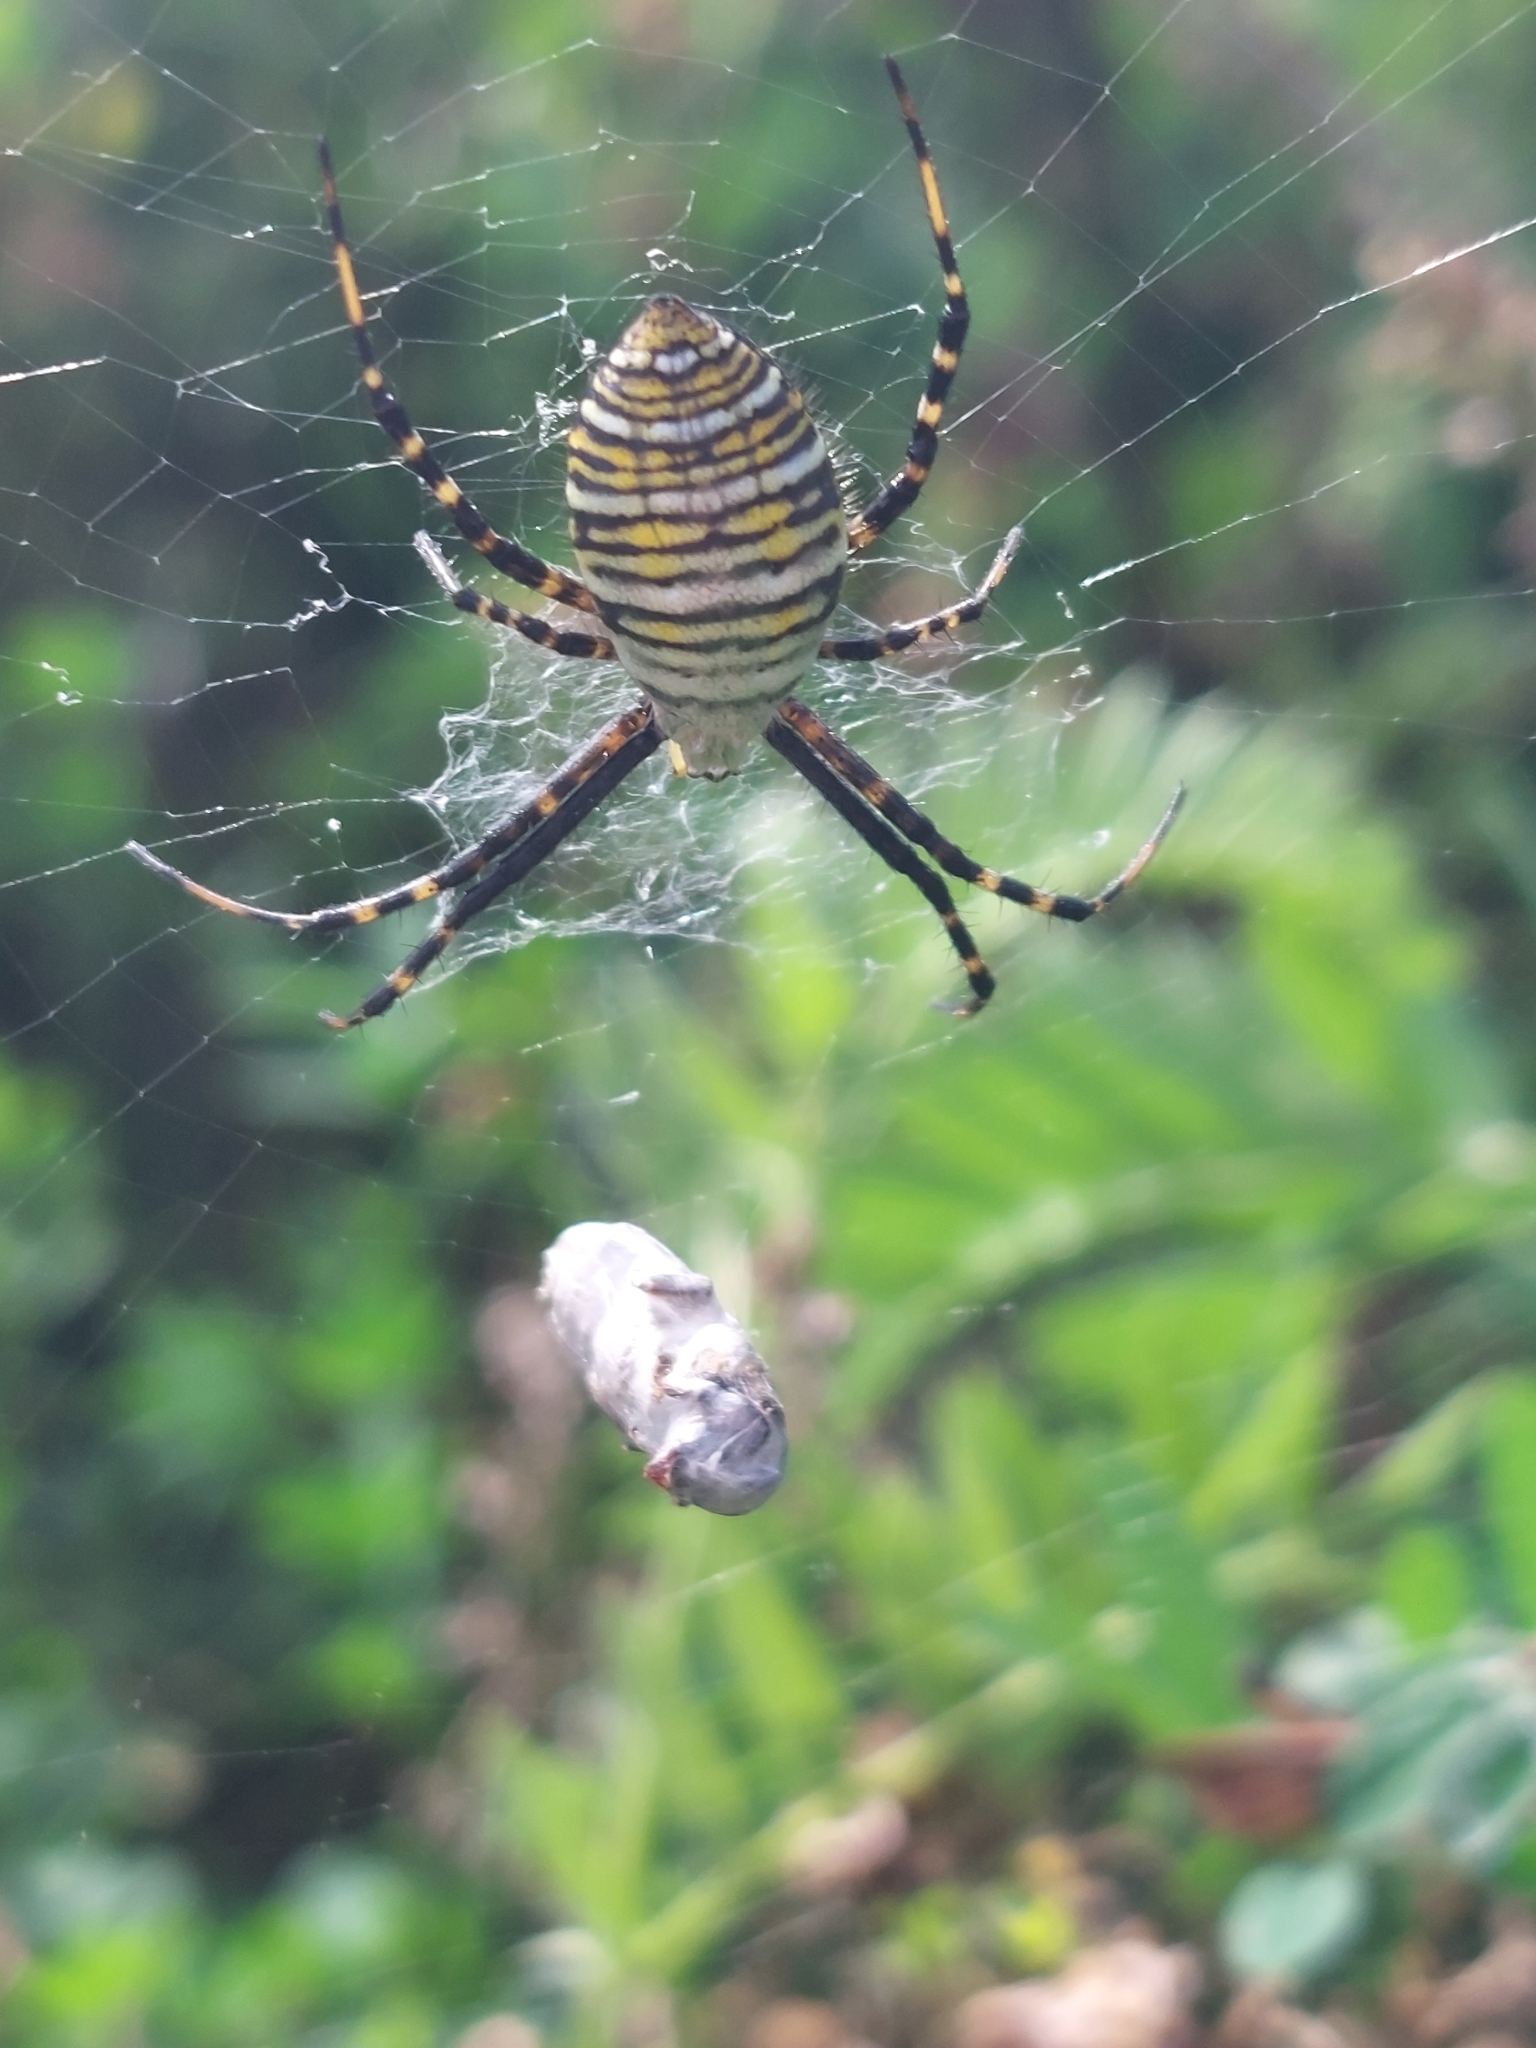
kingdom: Animalia
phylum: Arthropoda
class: Arachnida
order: Araneae
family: Araneidae
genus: Argiope
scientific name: Argiope trifasciata
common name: Banded garden spider
